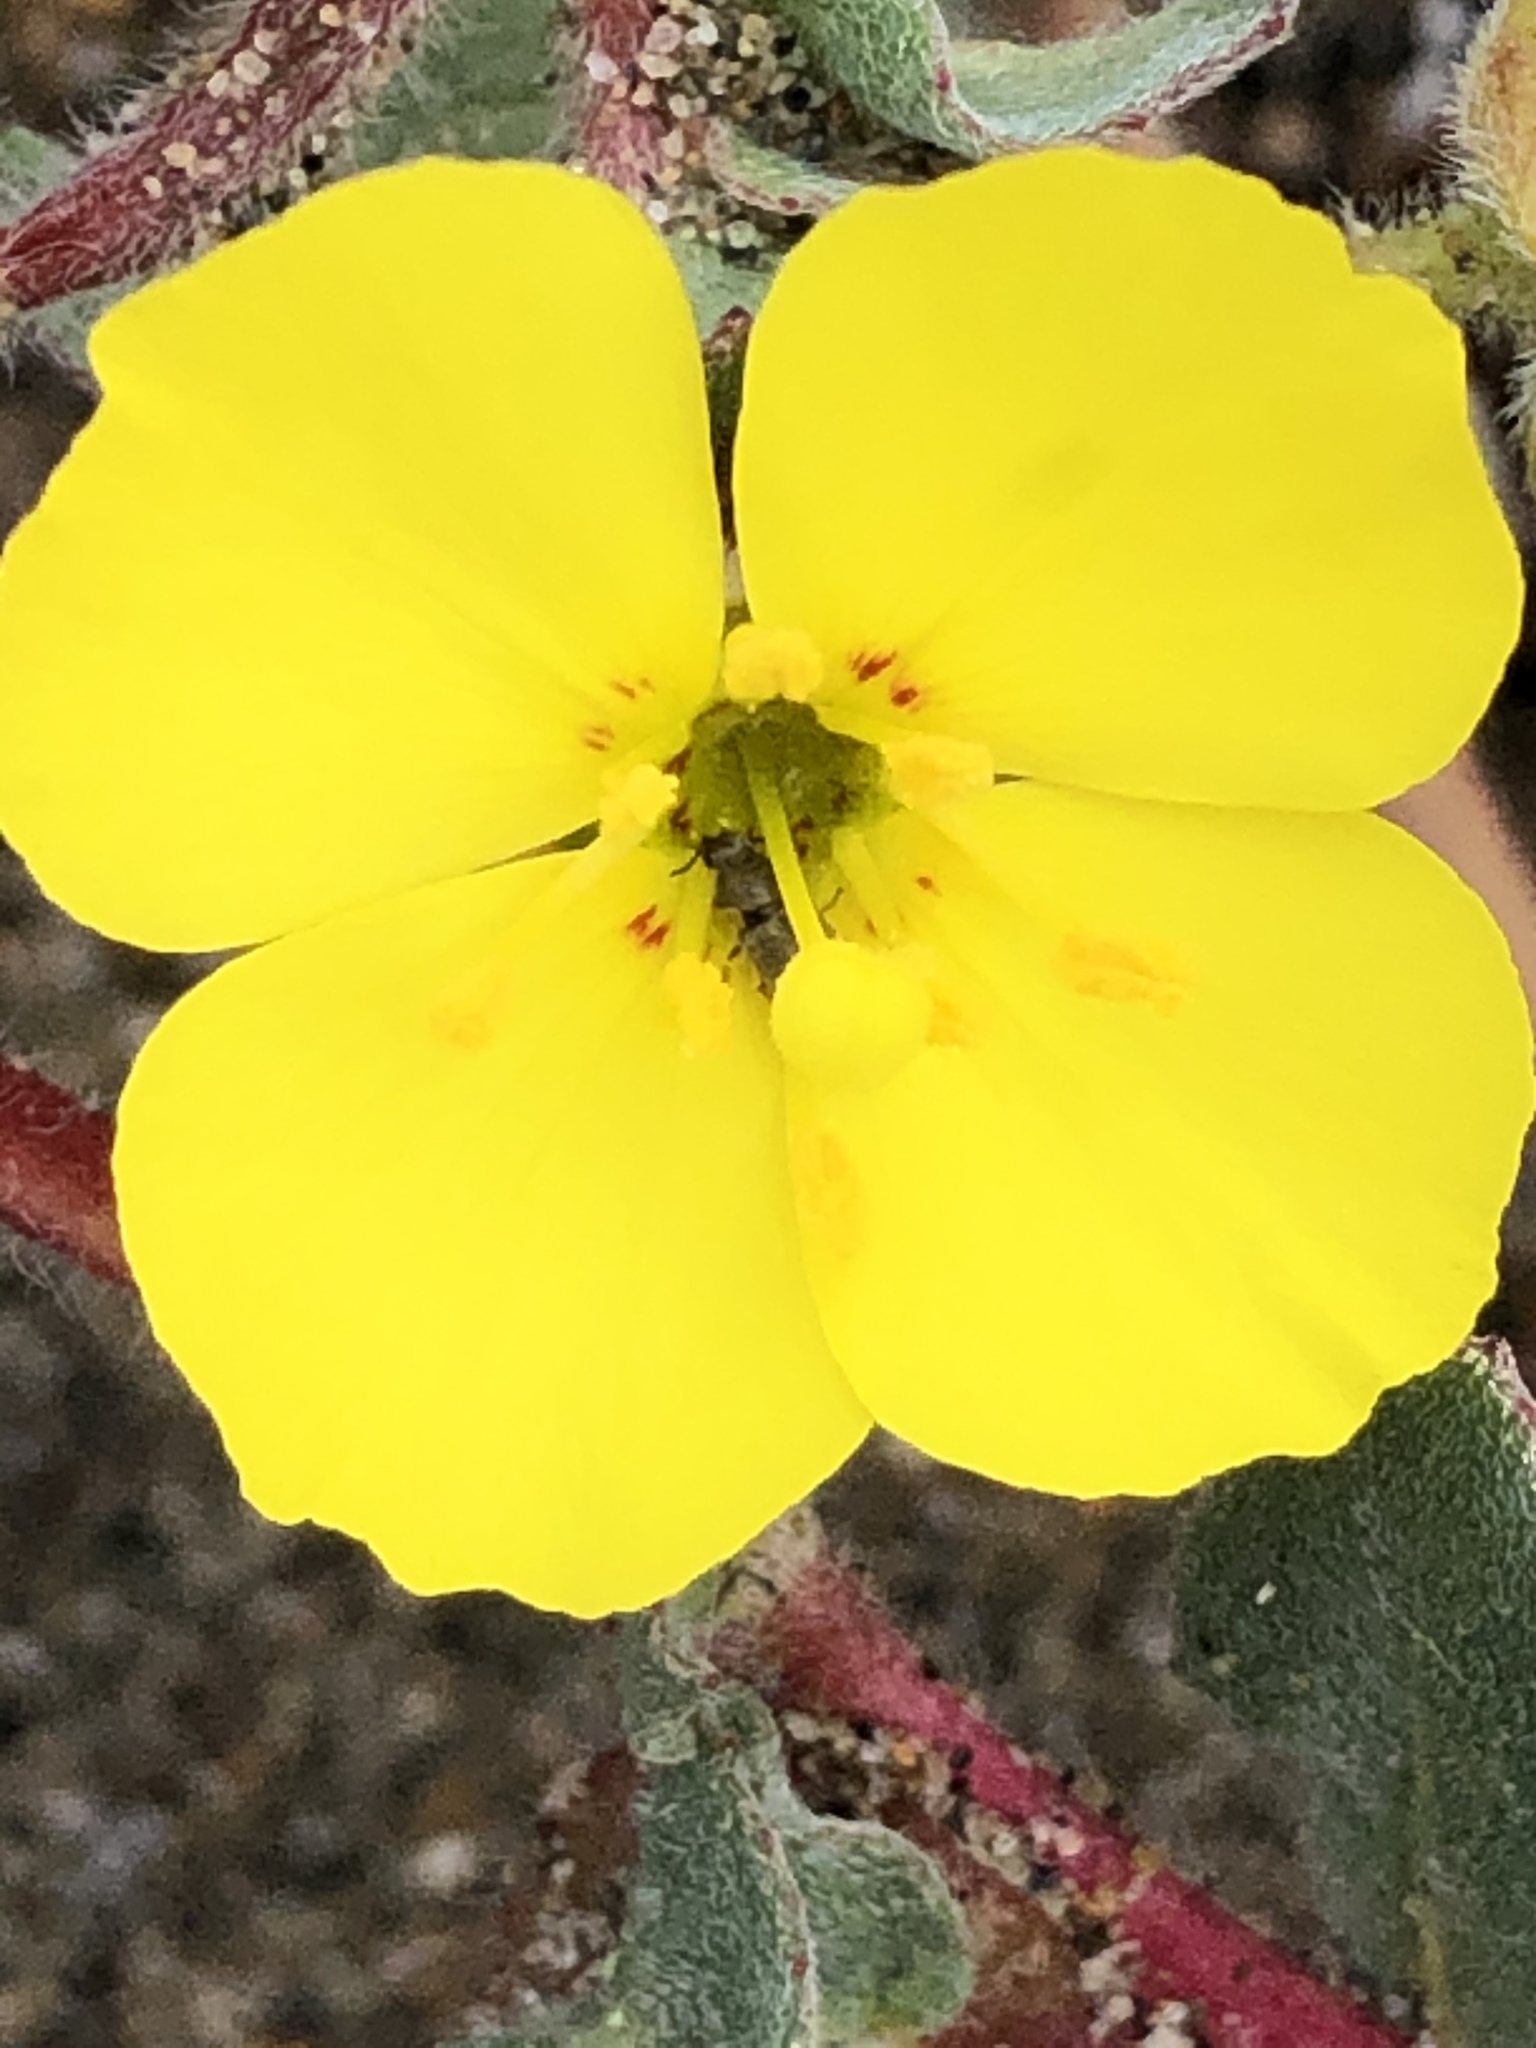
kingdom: Plantae
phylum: Tracheophyta
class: Magnoliopsida
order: Myrtales
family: Onagraceae
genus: Camissoniopsis
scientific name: Camissoniopsis cheiranthifolia
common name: Beach suncup
